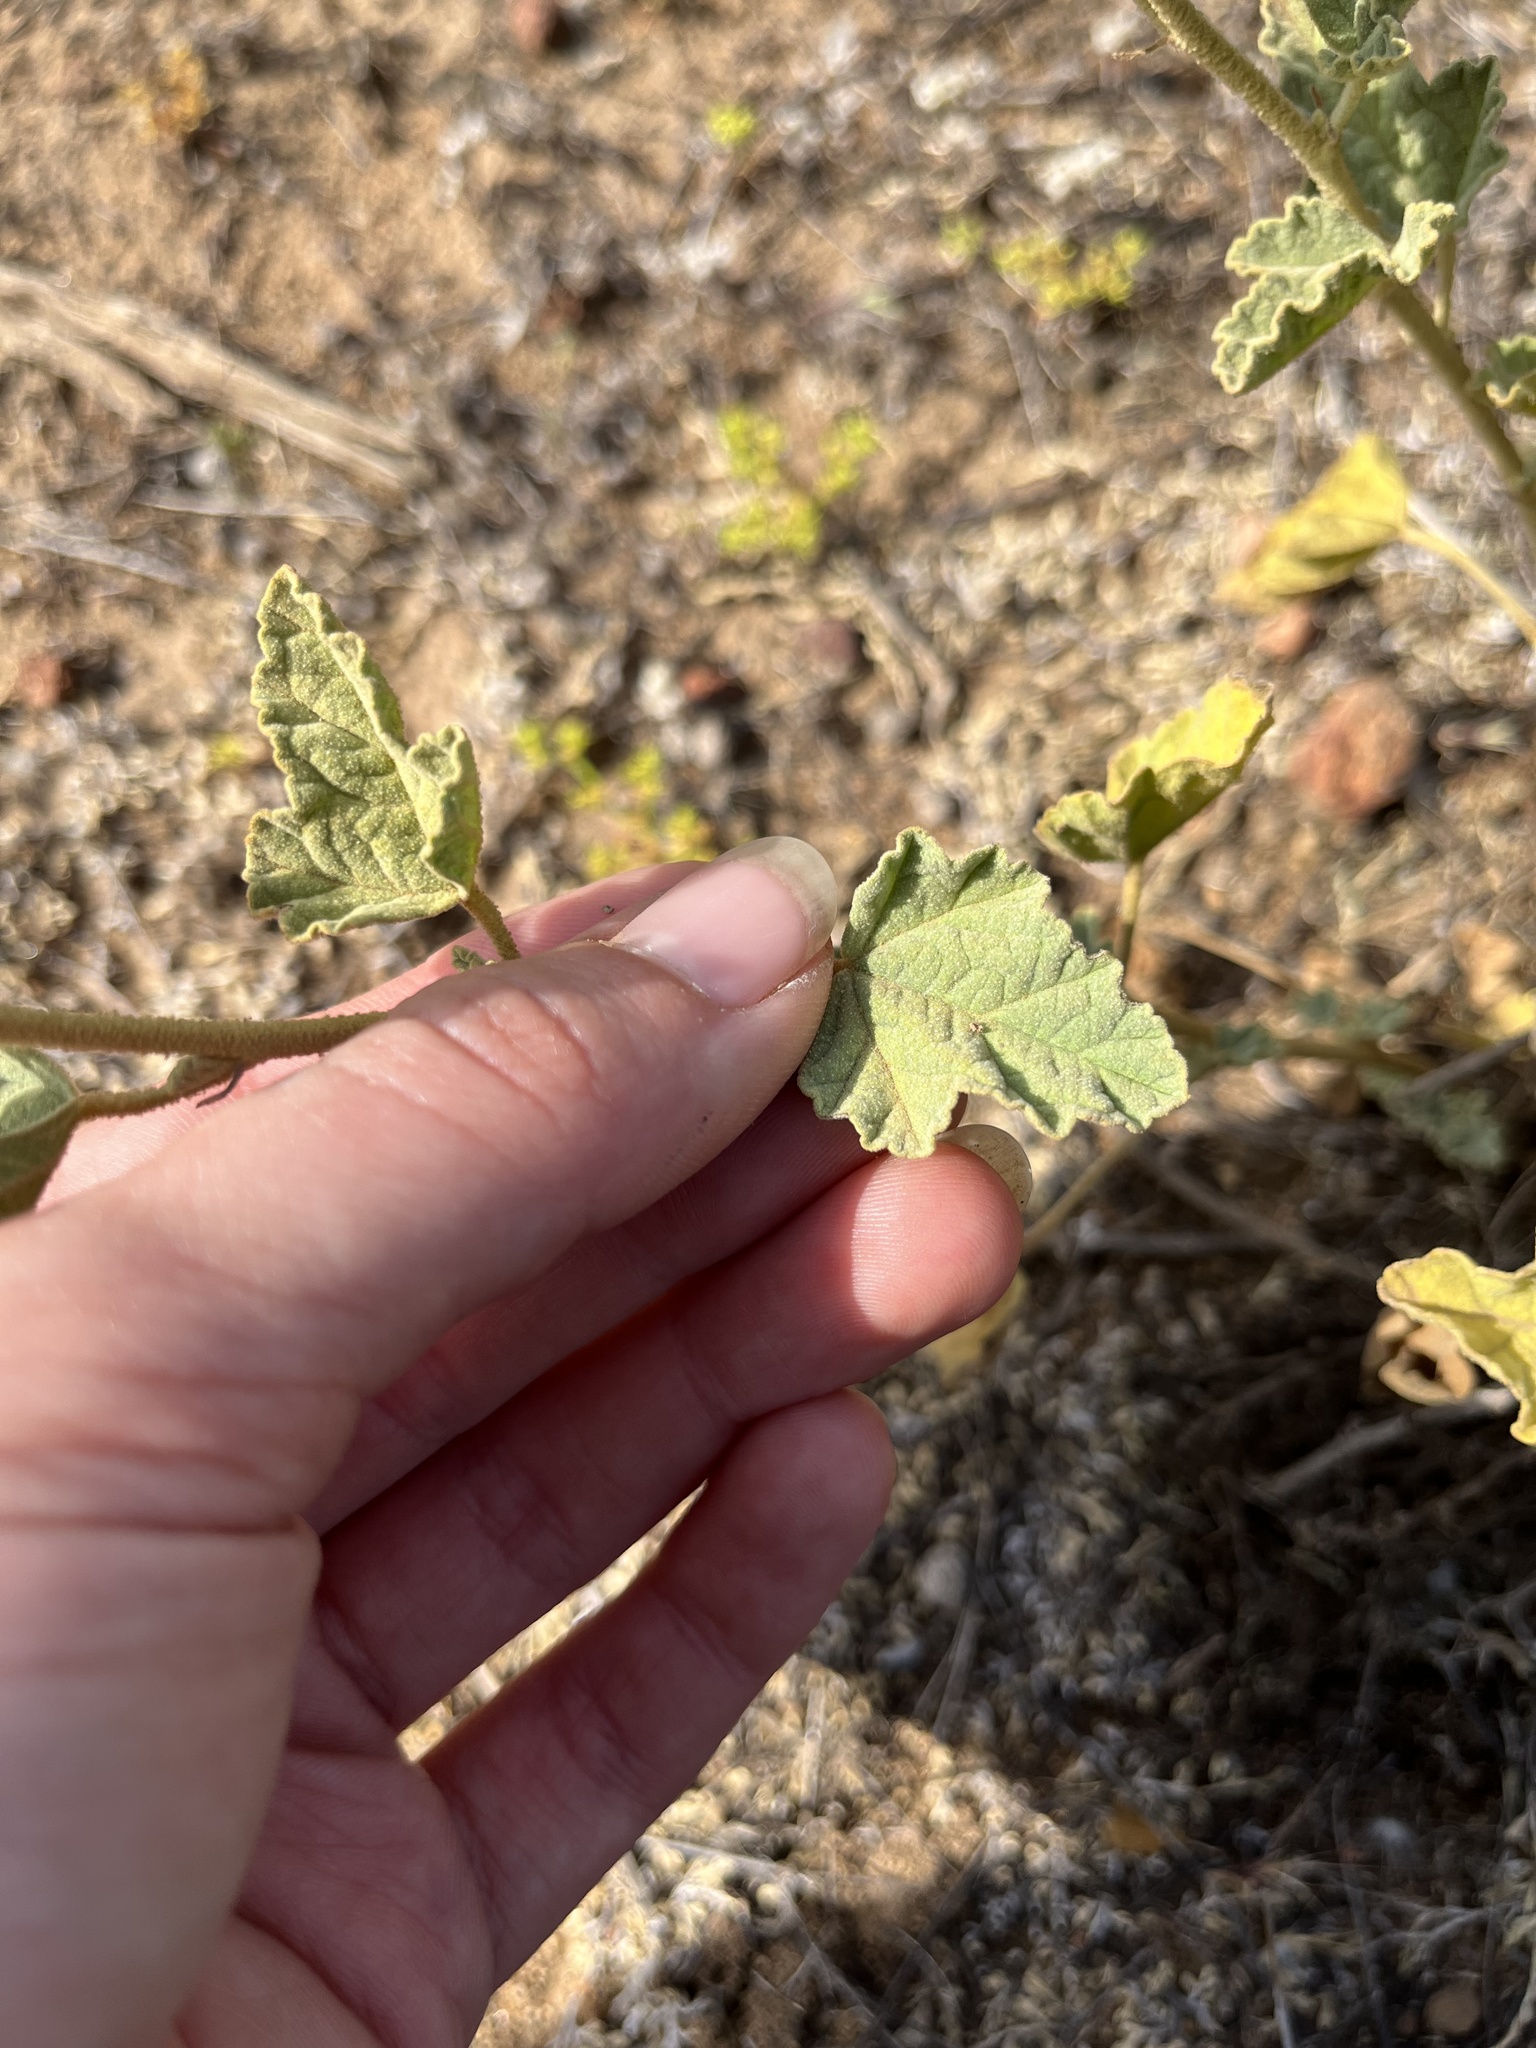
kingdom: Plantae
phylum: Tracheophyta
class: Magnoliopsida
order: Malvales
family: Malvaceae
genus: Sphaeralcea
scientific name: Sphaeralcea ambigua
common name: Apricot globe-mallow
